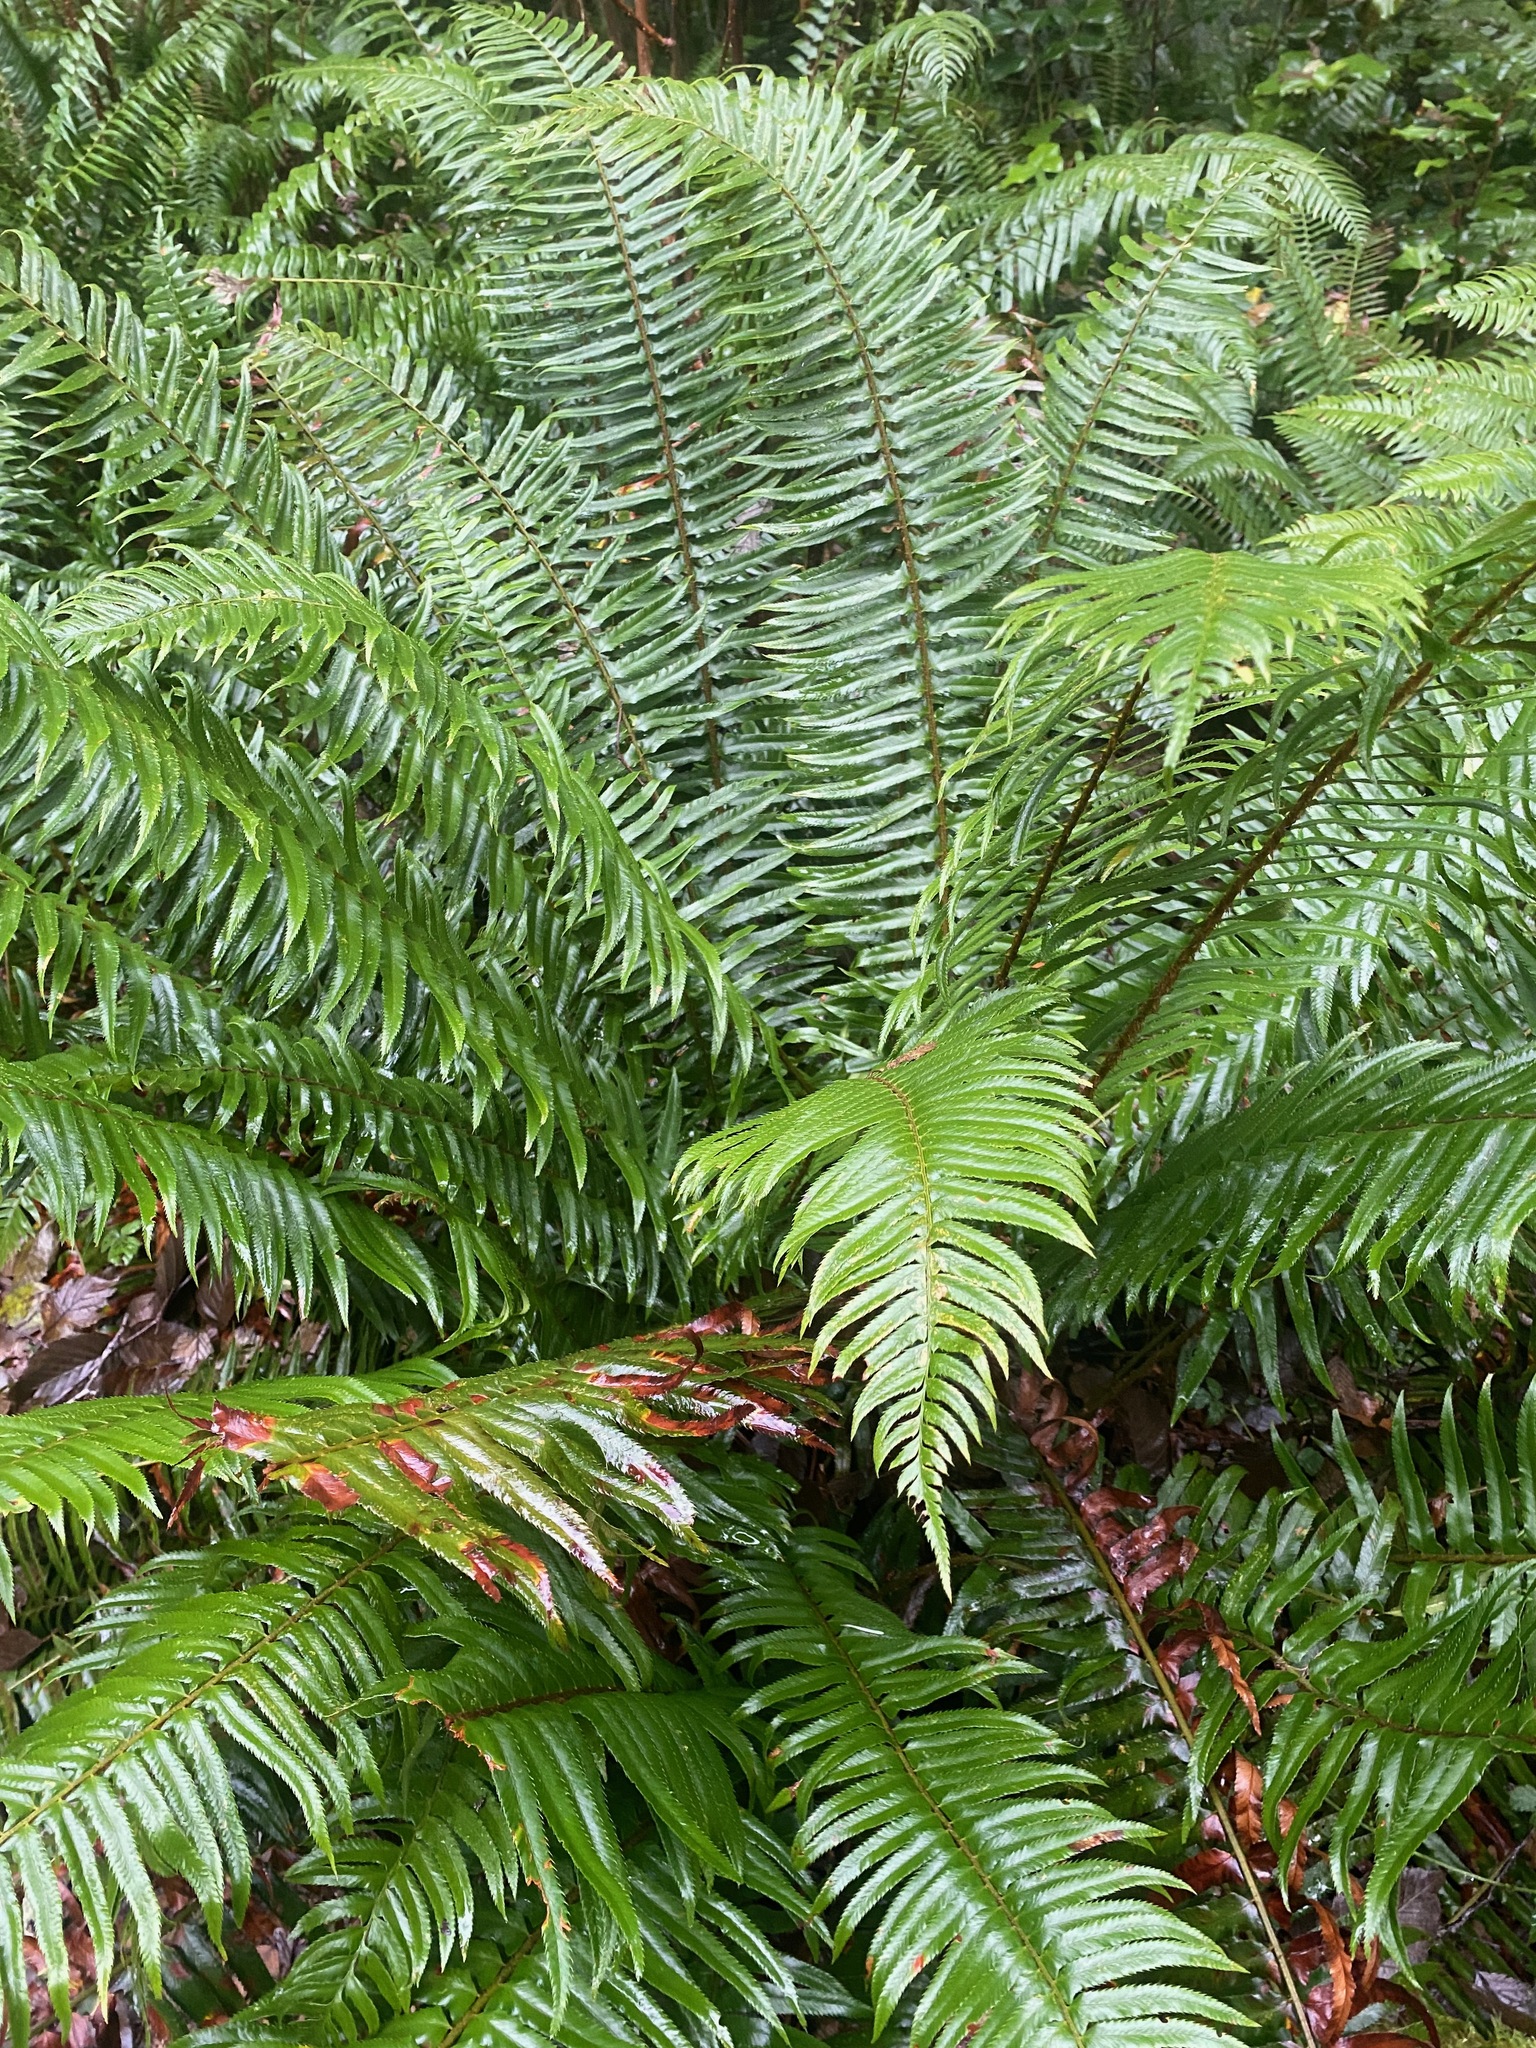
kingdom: Plantae
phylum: Tracheophyta
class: Polypodiopsida
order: Polypodiales
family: Dryopteridaceae
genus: Polystichum
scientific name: Polystichum munitum
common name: Western sword-fern
